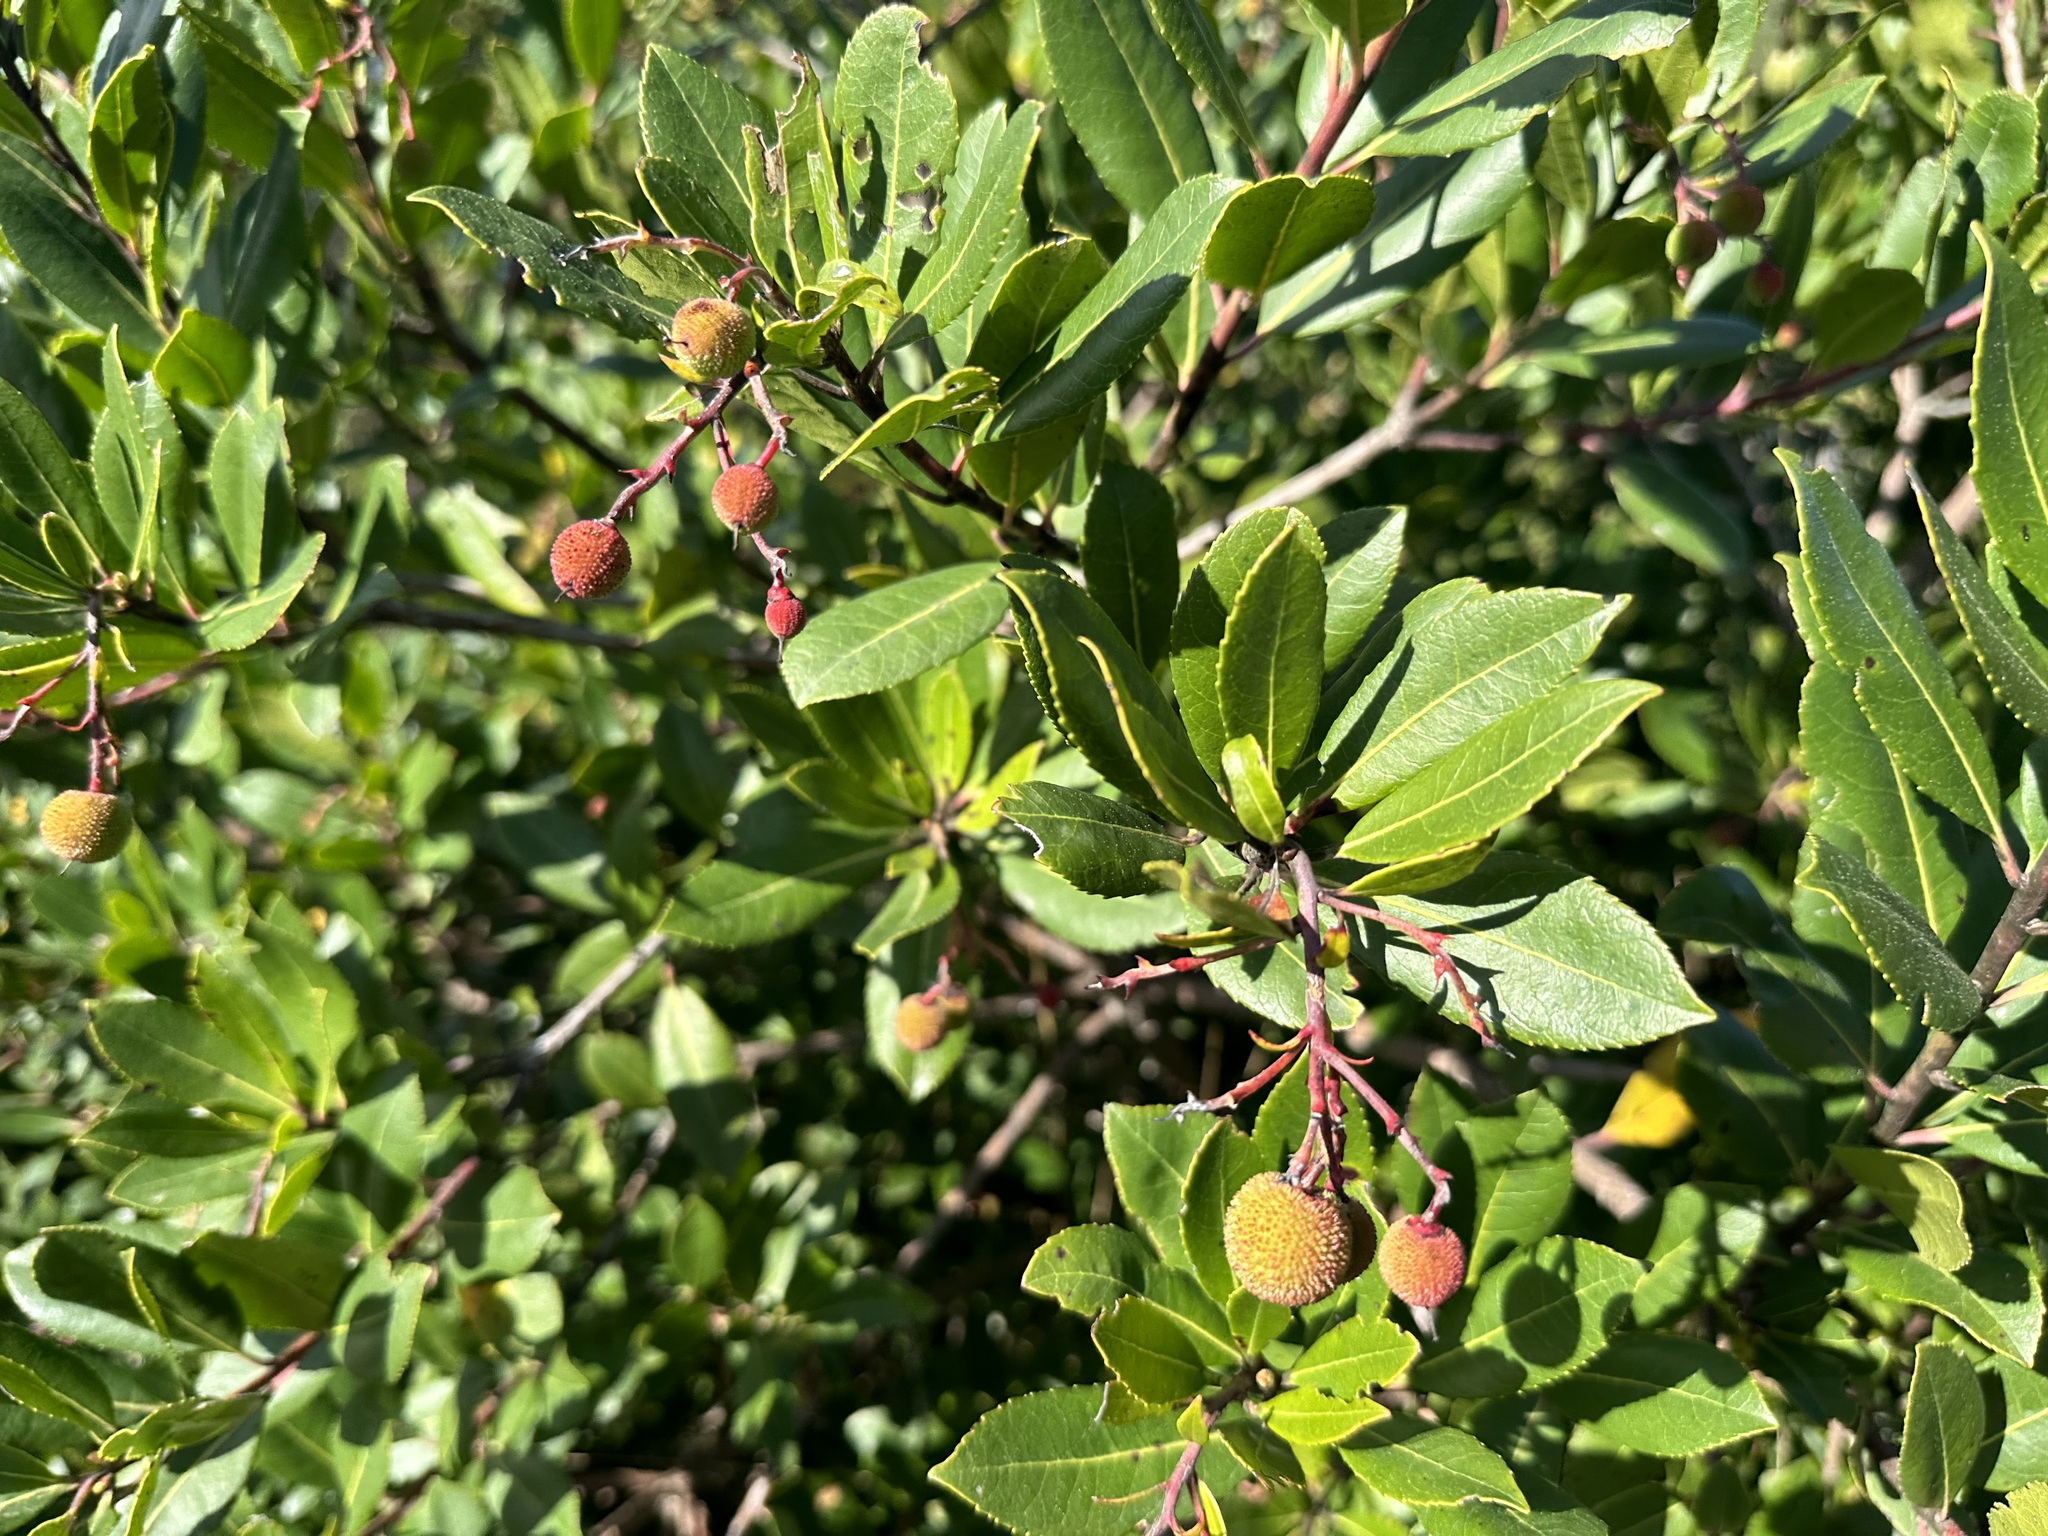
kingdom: Plantae
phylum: Tracheophyta
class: Magnoliopsida
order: Ericales
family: Ericaceae
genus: Arbutus
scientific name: Arbutus unedo
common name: Strawberry-tree
